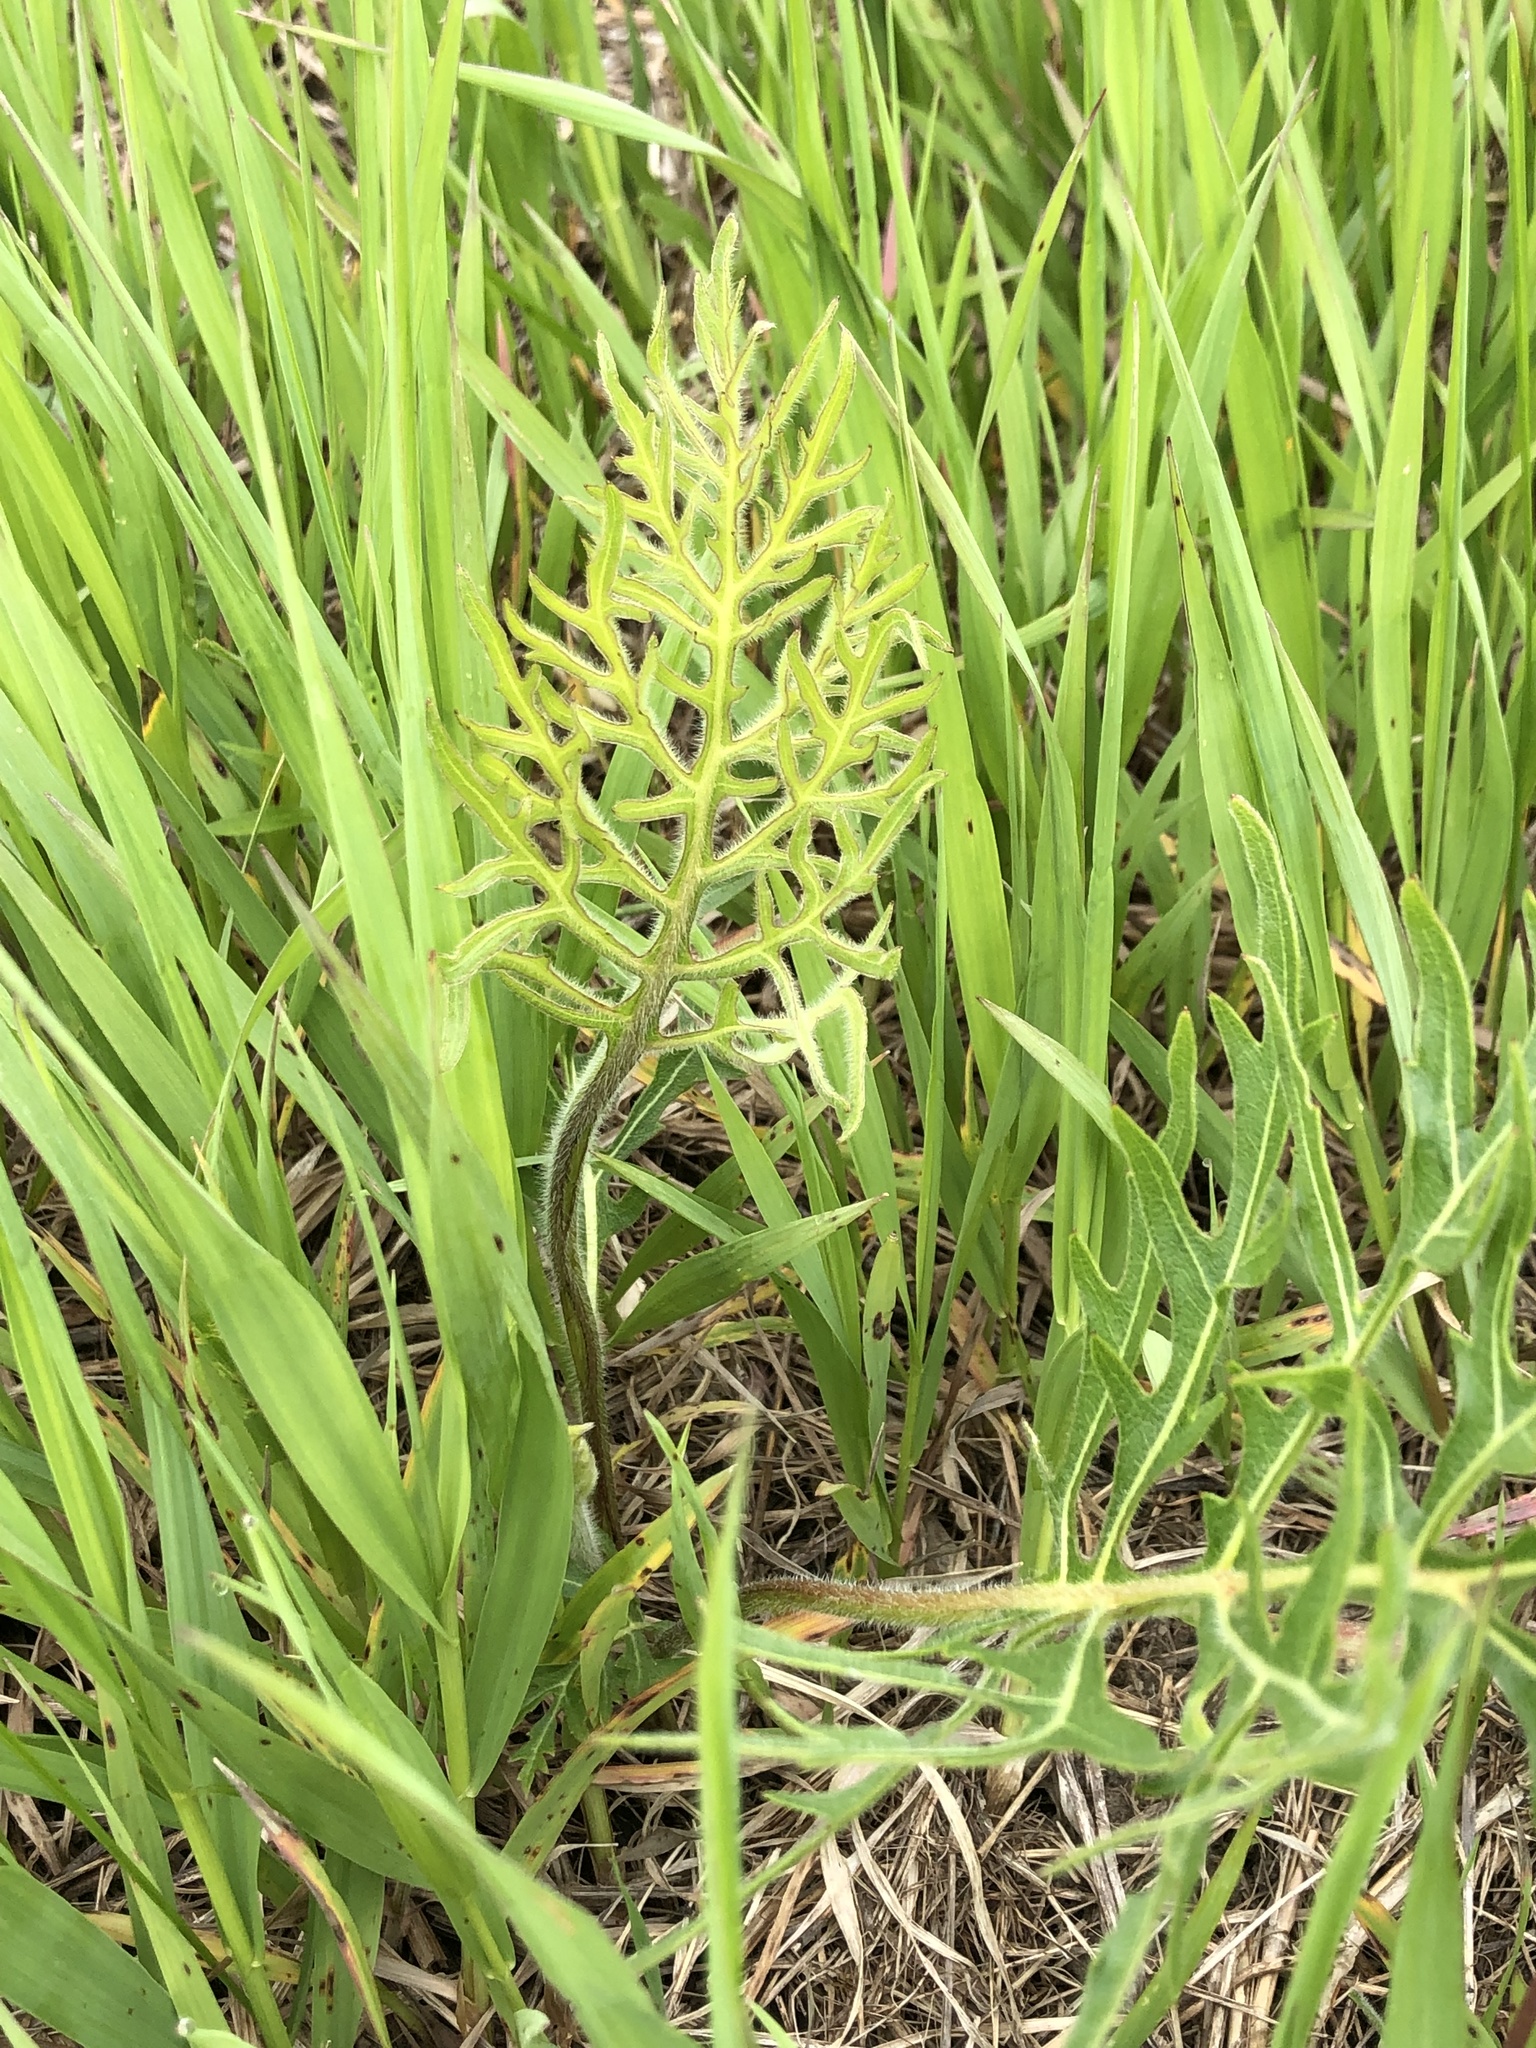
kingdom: Plantae
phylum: Tracheophyta
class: Magnoliopsida
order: Asterales
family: Asteraceae
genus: Silphium
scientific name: Silphium laciniatum
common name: Polarplant
